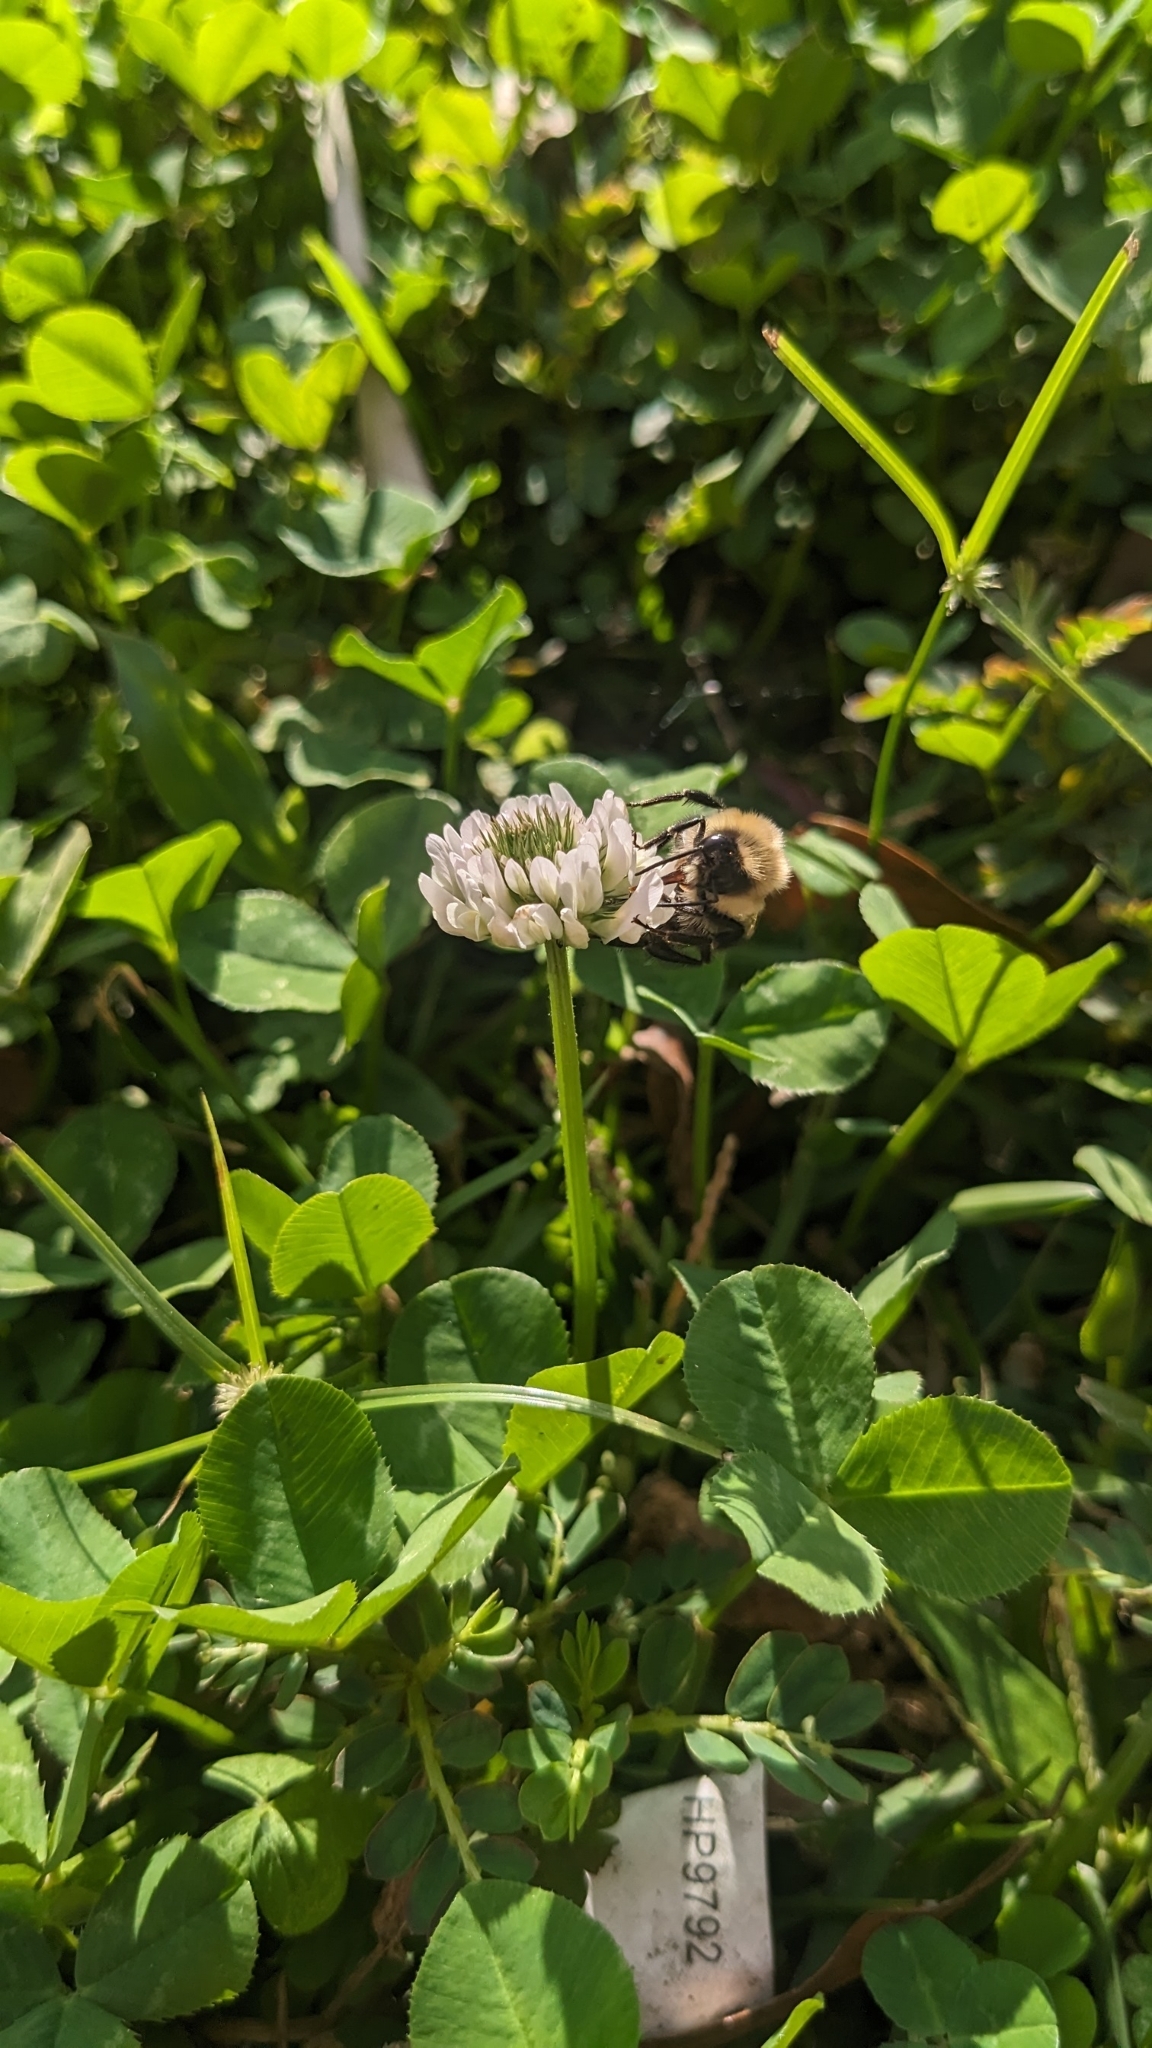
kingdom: Animalia
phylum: Arthropoda
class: Insecta
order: Hymenoptera
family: Apidae
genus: Bombus
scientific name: Bombus impatiens
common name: Common eastern bumble bee
